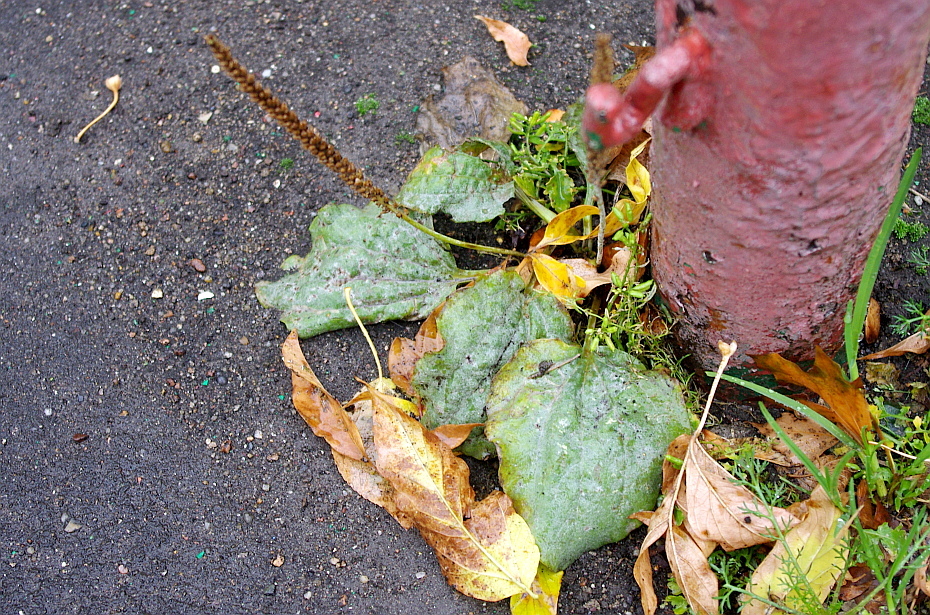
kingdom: Plantae
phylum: Tracheophyta
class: Magnoliopsida
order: Lamiales
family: Plantaginaceae
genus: Plantago
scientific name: Plantago major
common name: Common plantain
